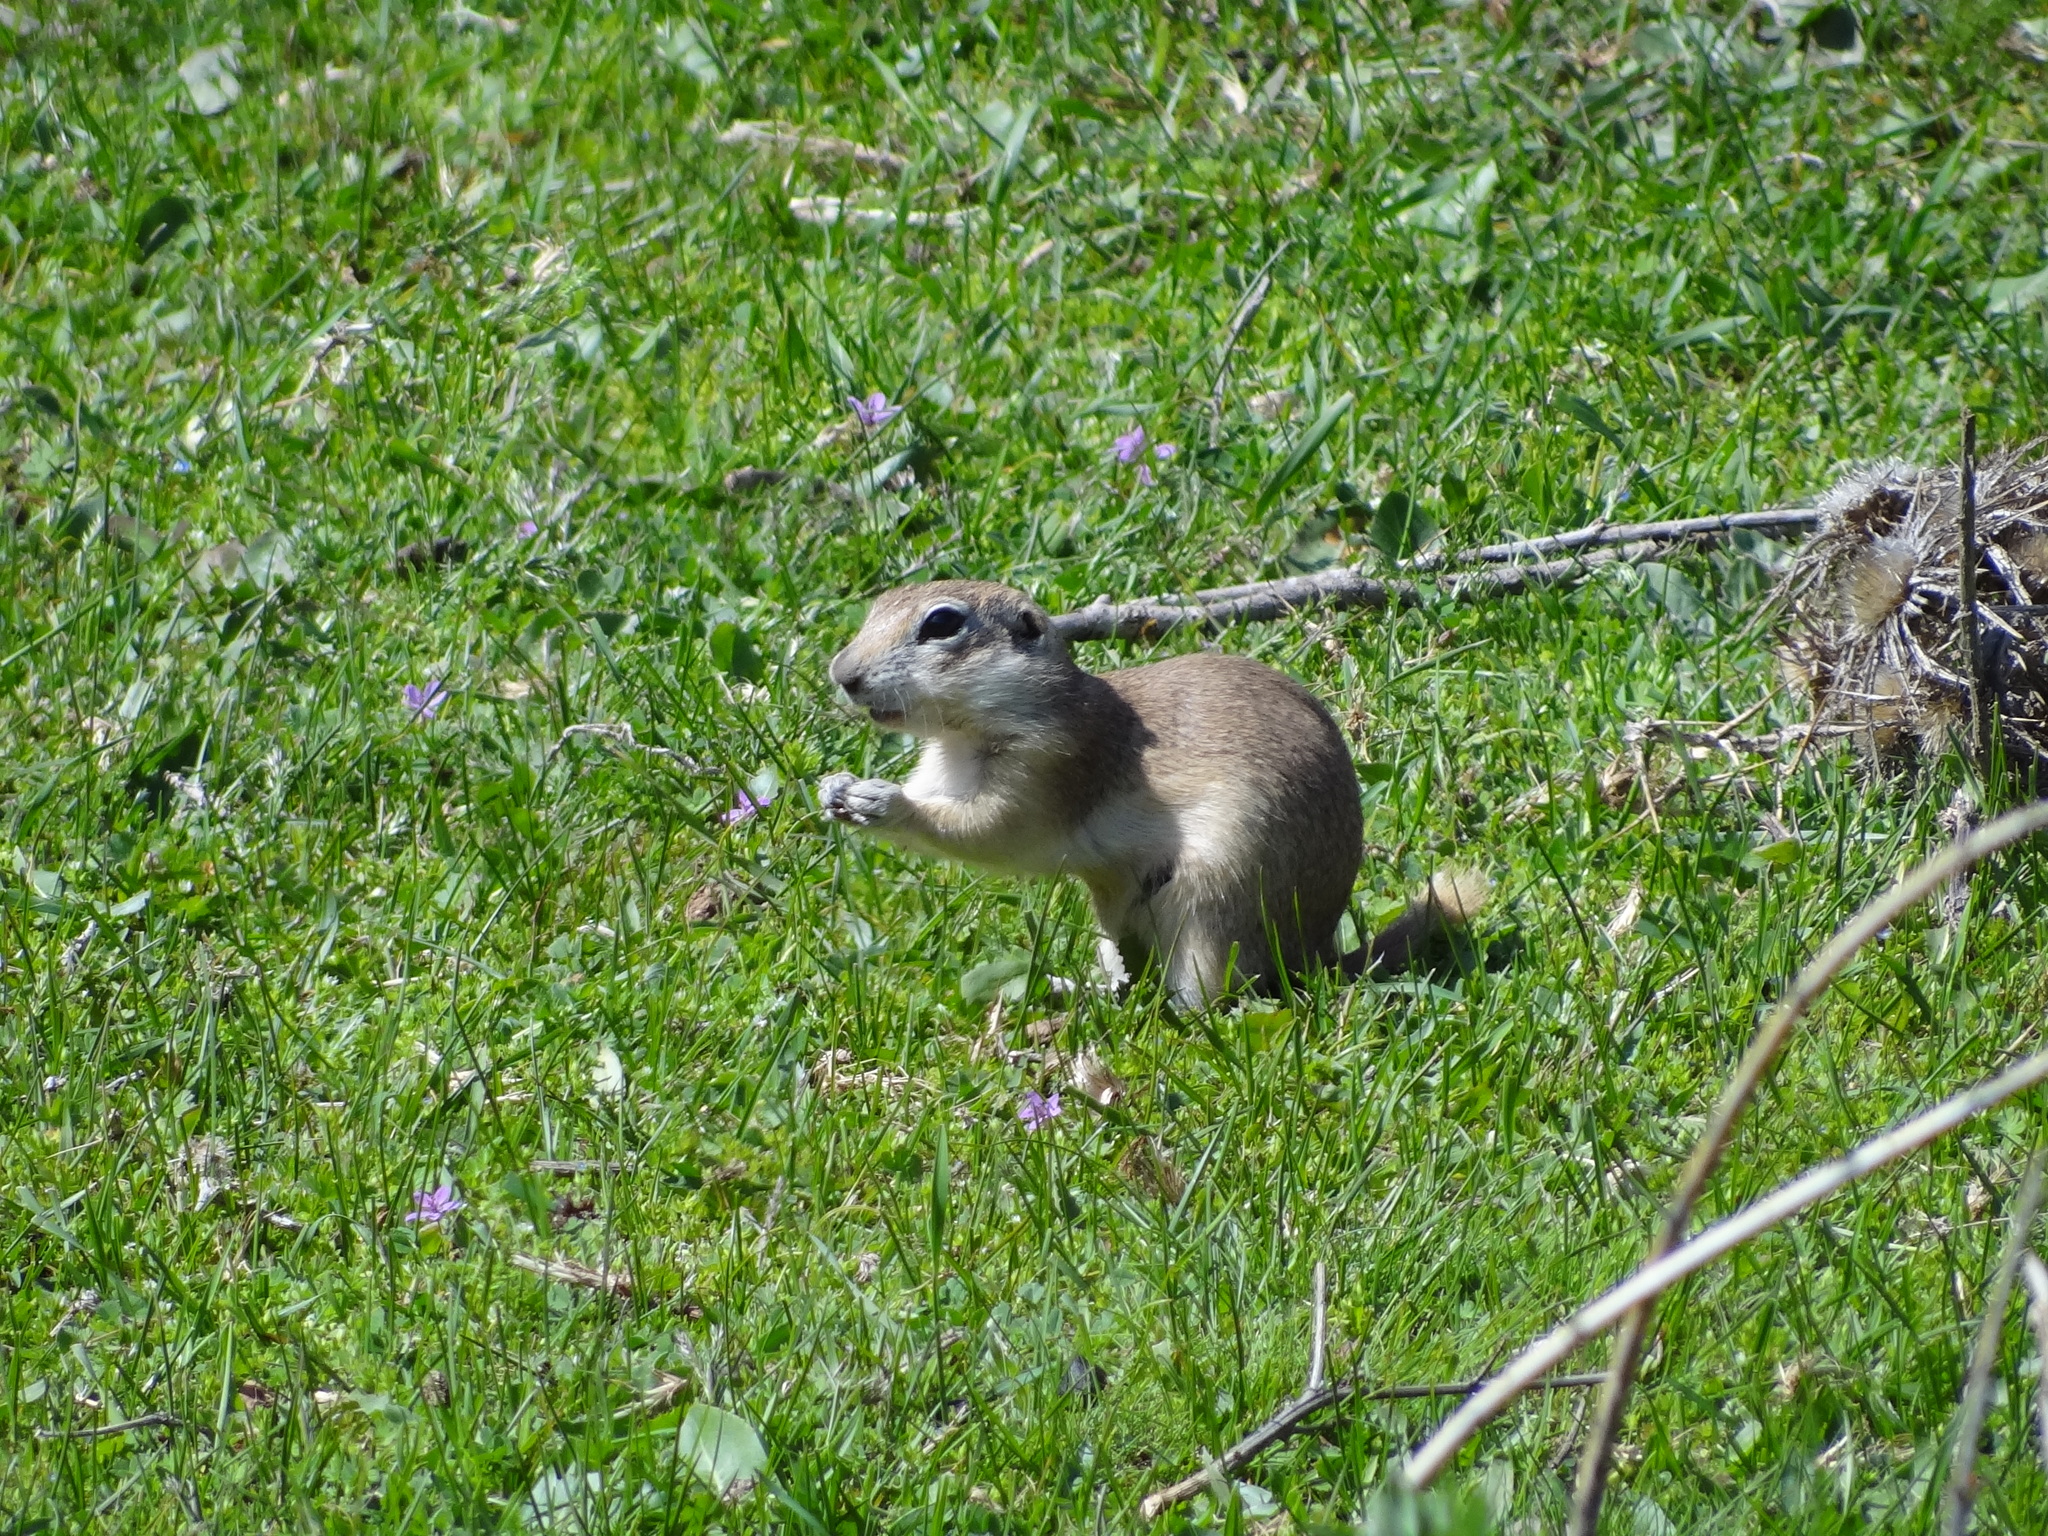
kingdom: Animalia
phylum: Chordata
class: Mammalia
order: Rodentia
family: Sciuridae
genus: Spermophilus
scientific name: Spermophilus xanthoprymnus
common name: Asia minor ground squirrel
